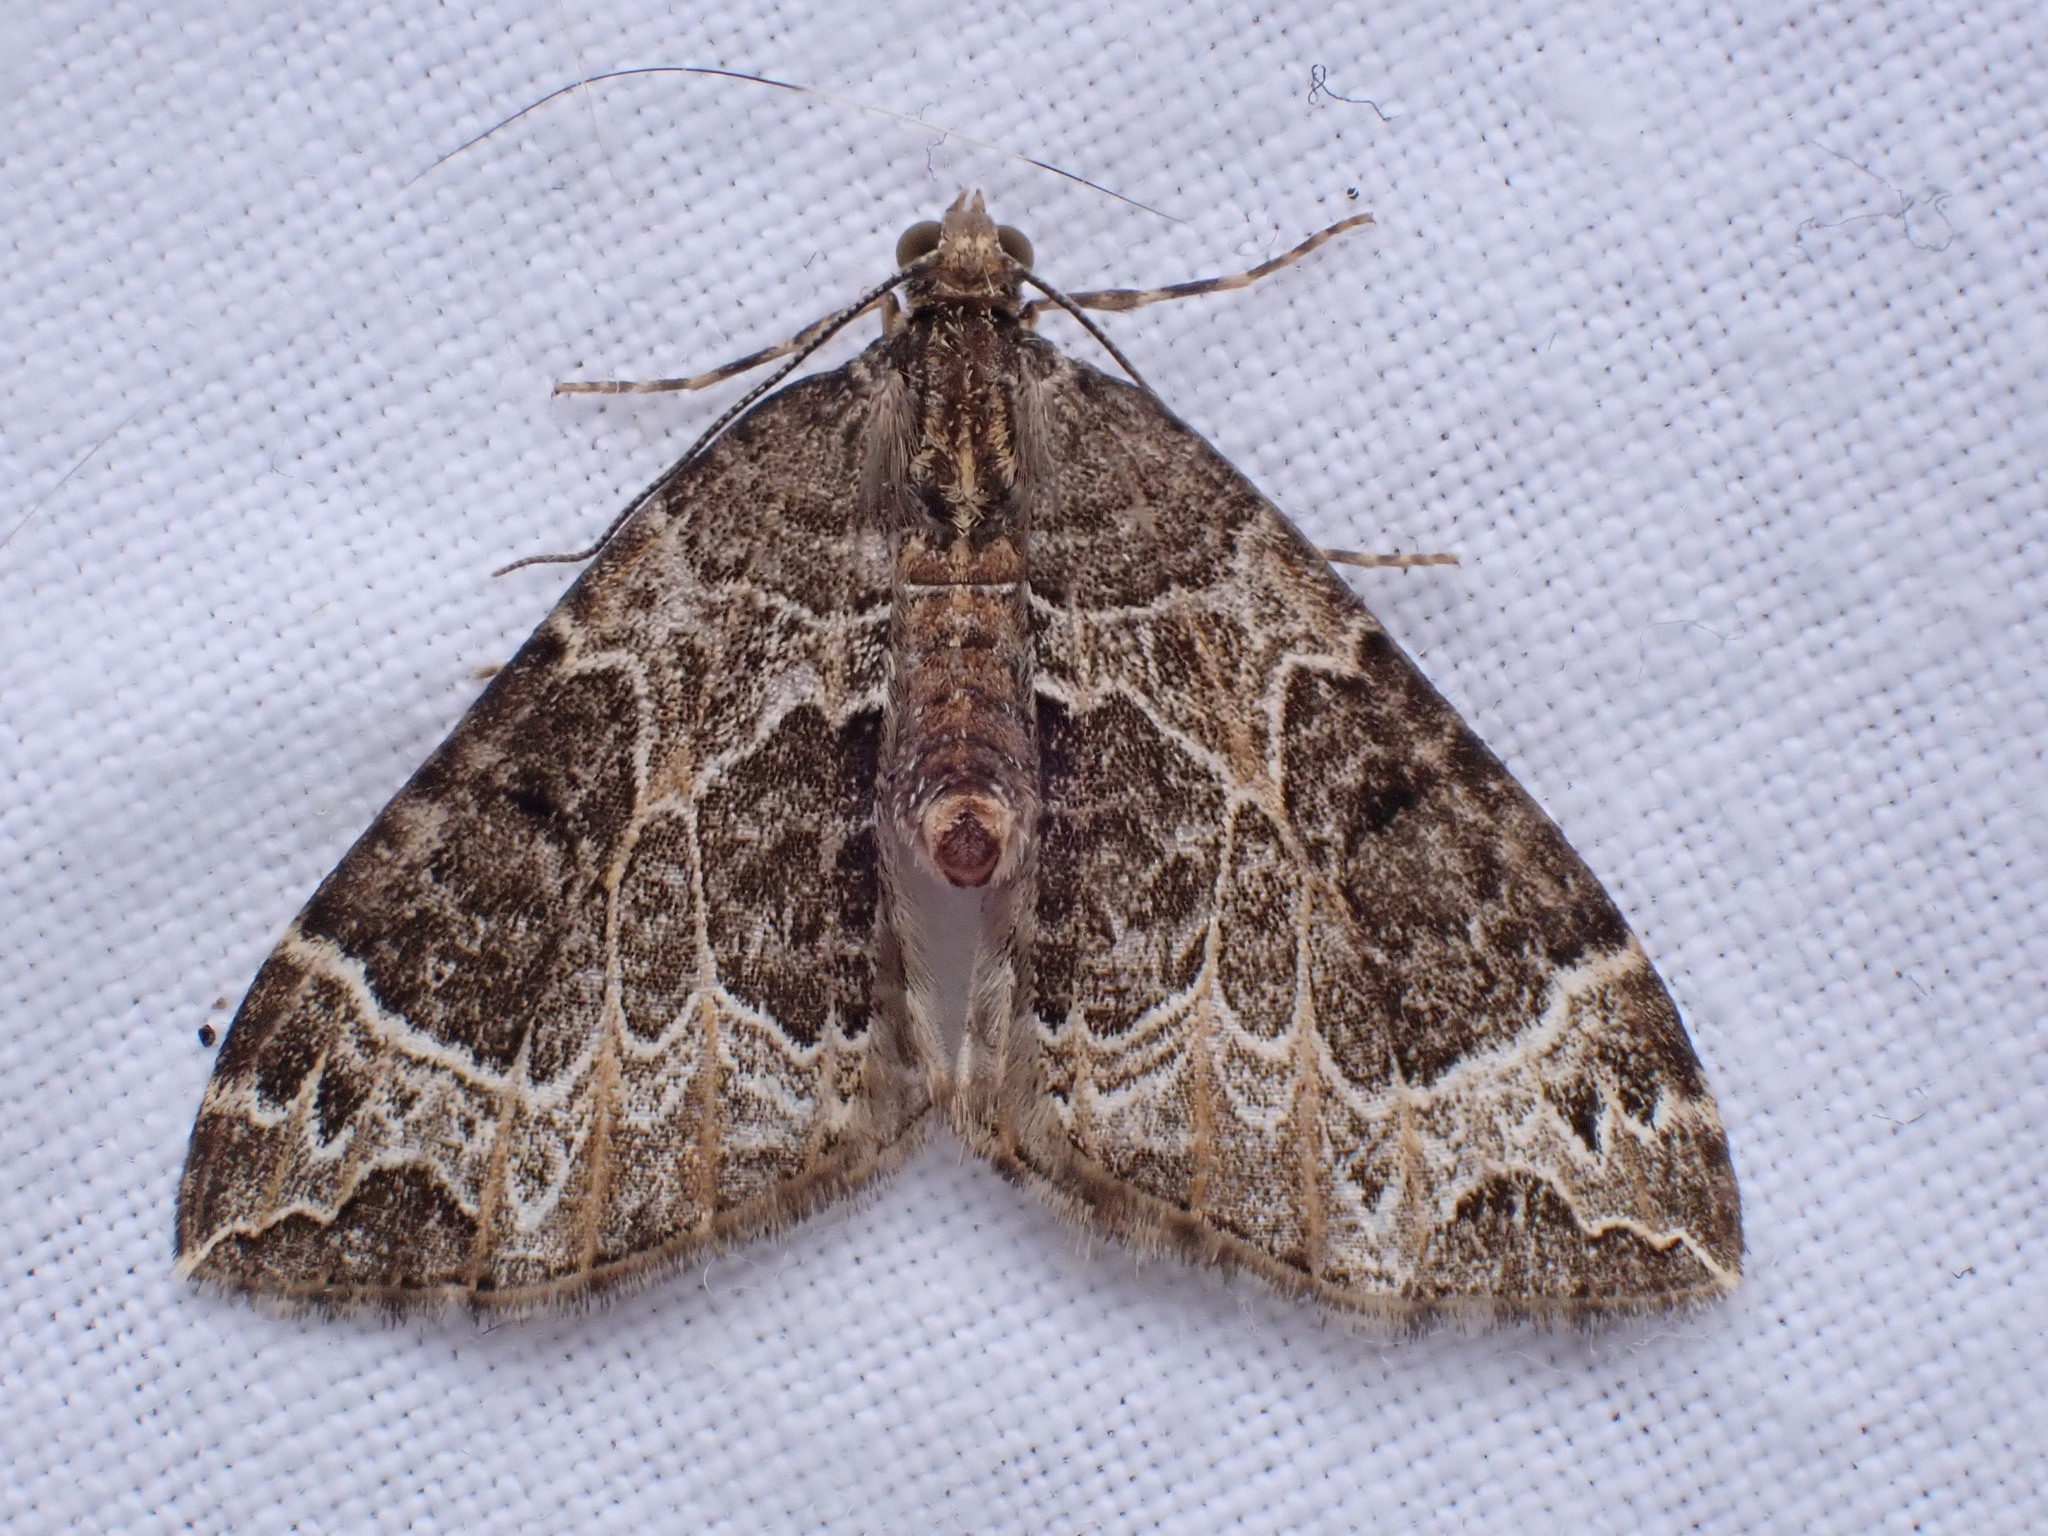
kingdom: Animalia
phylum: Arthropoda
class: Insecta
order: Lepidoptera
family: Geometridae
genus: Ecliptopera
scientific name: Ecliptopera silaceata
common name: Small phoenix
